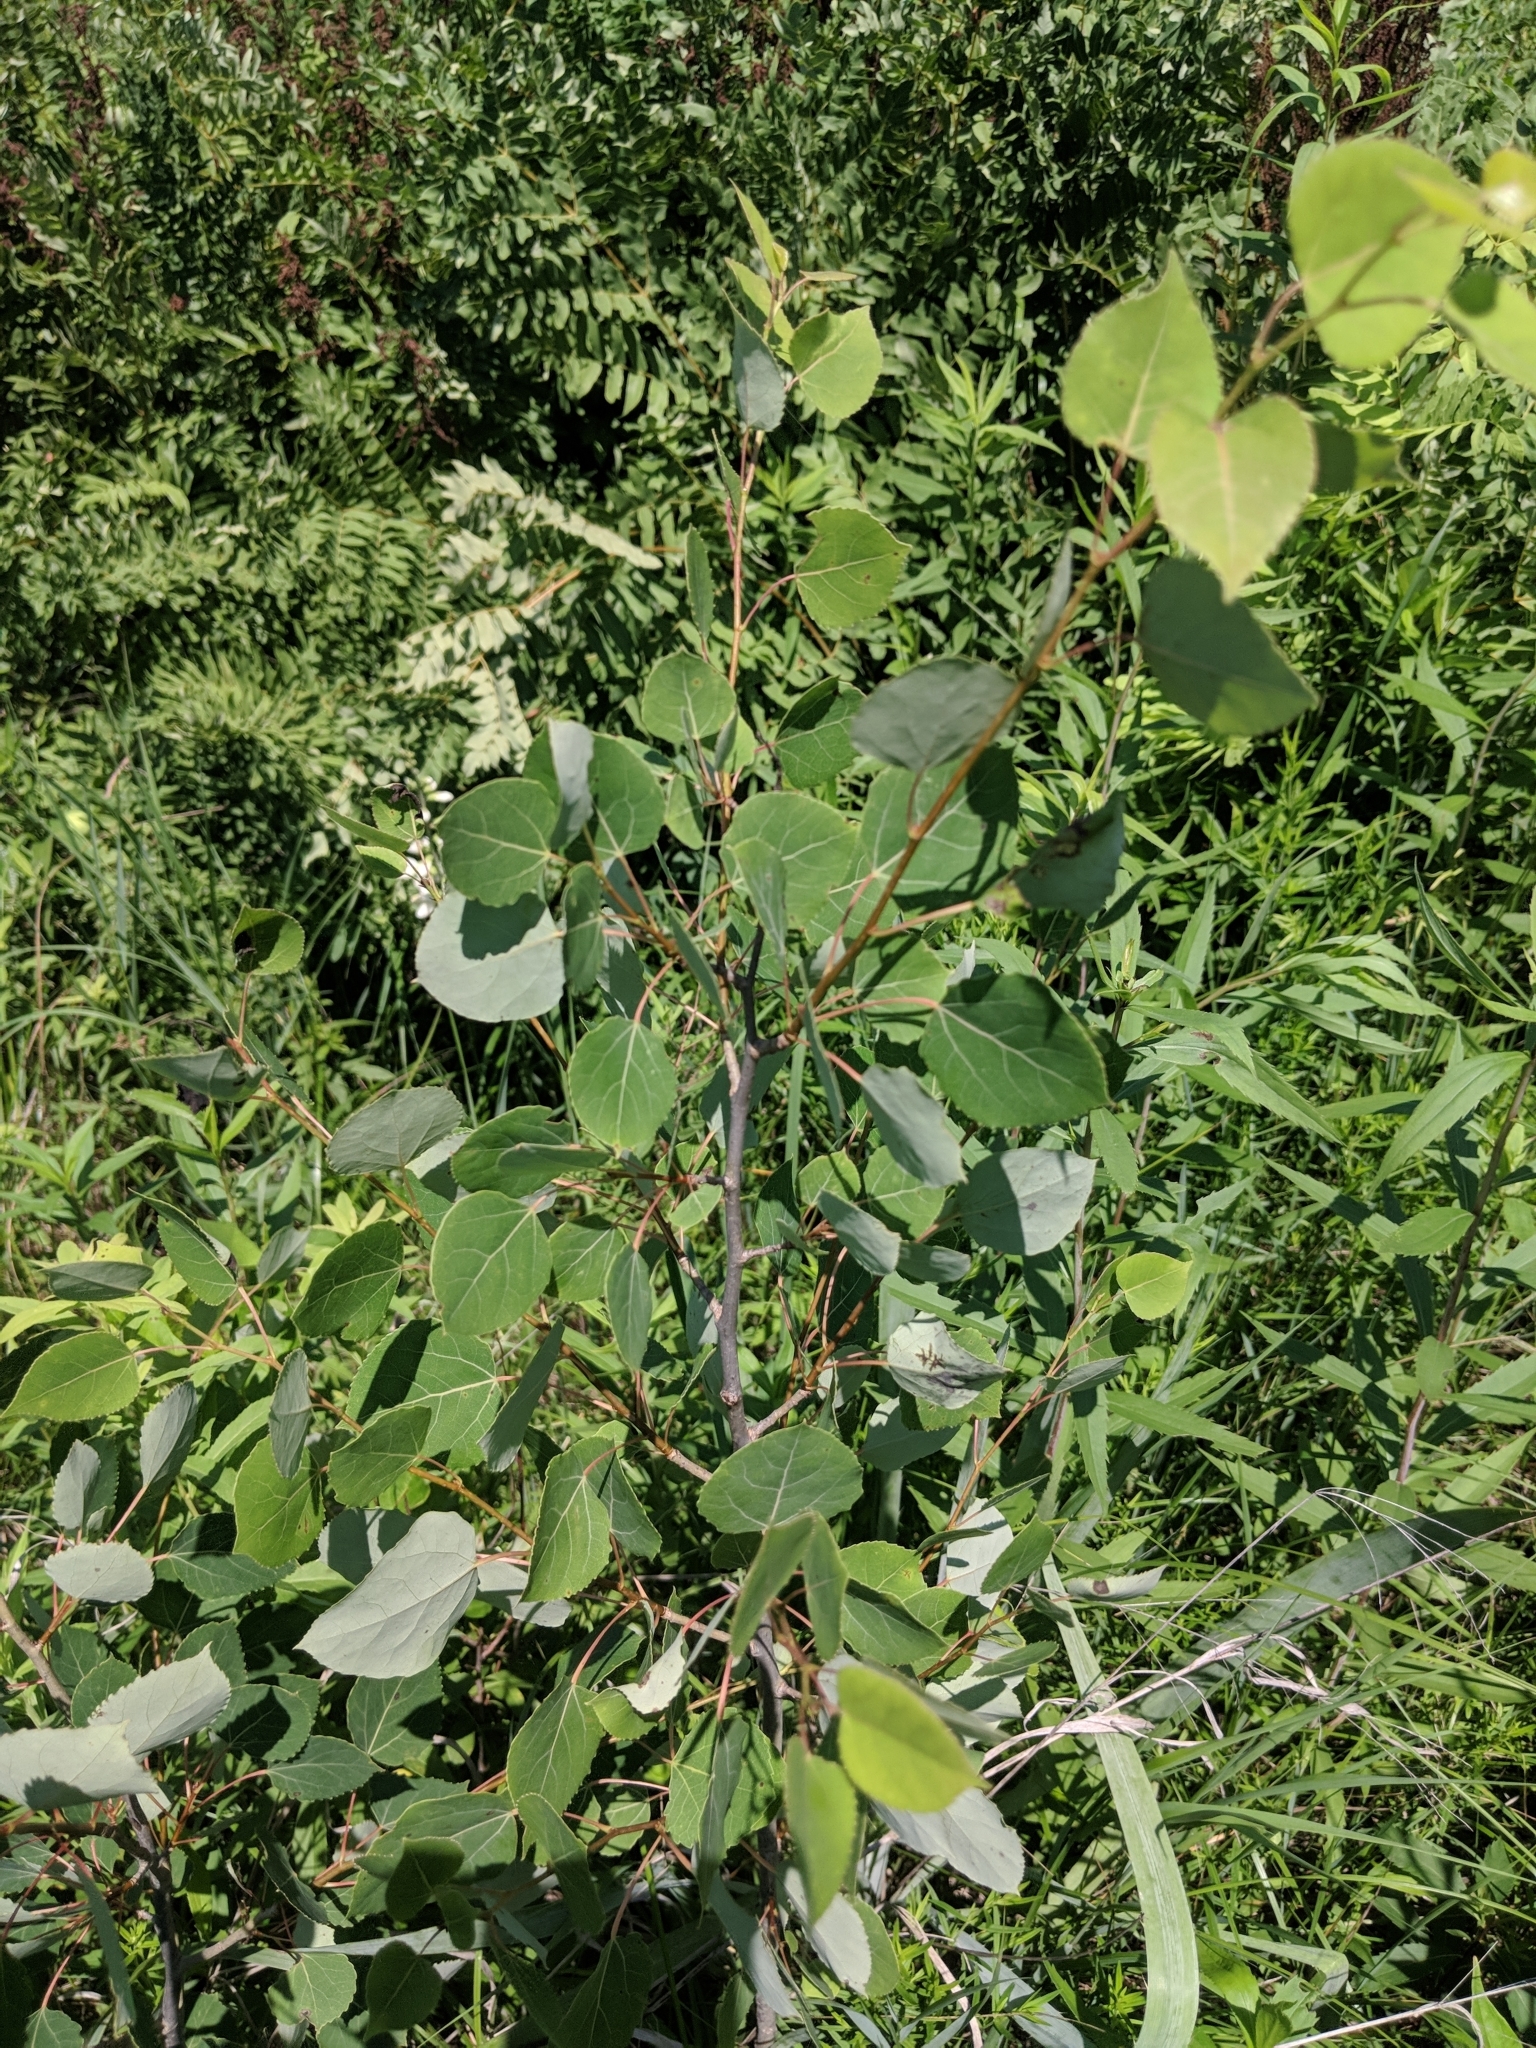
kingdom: Plantae
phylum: Tracheophyta
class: Magnoliopsida
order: Malpighiales
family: Salicaceae
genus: Populus
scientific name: Populus tremuloides
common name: Quaking aspen
